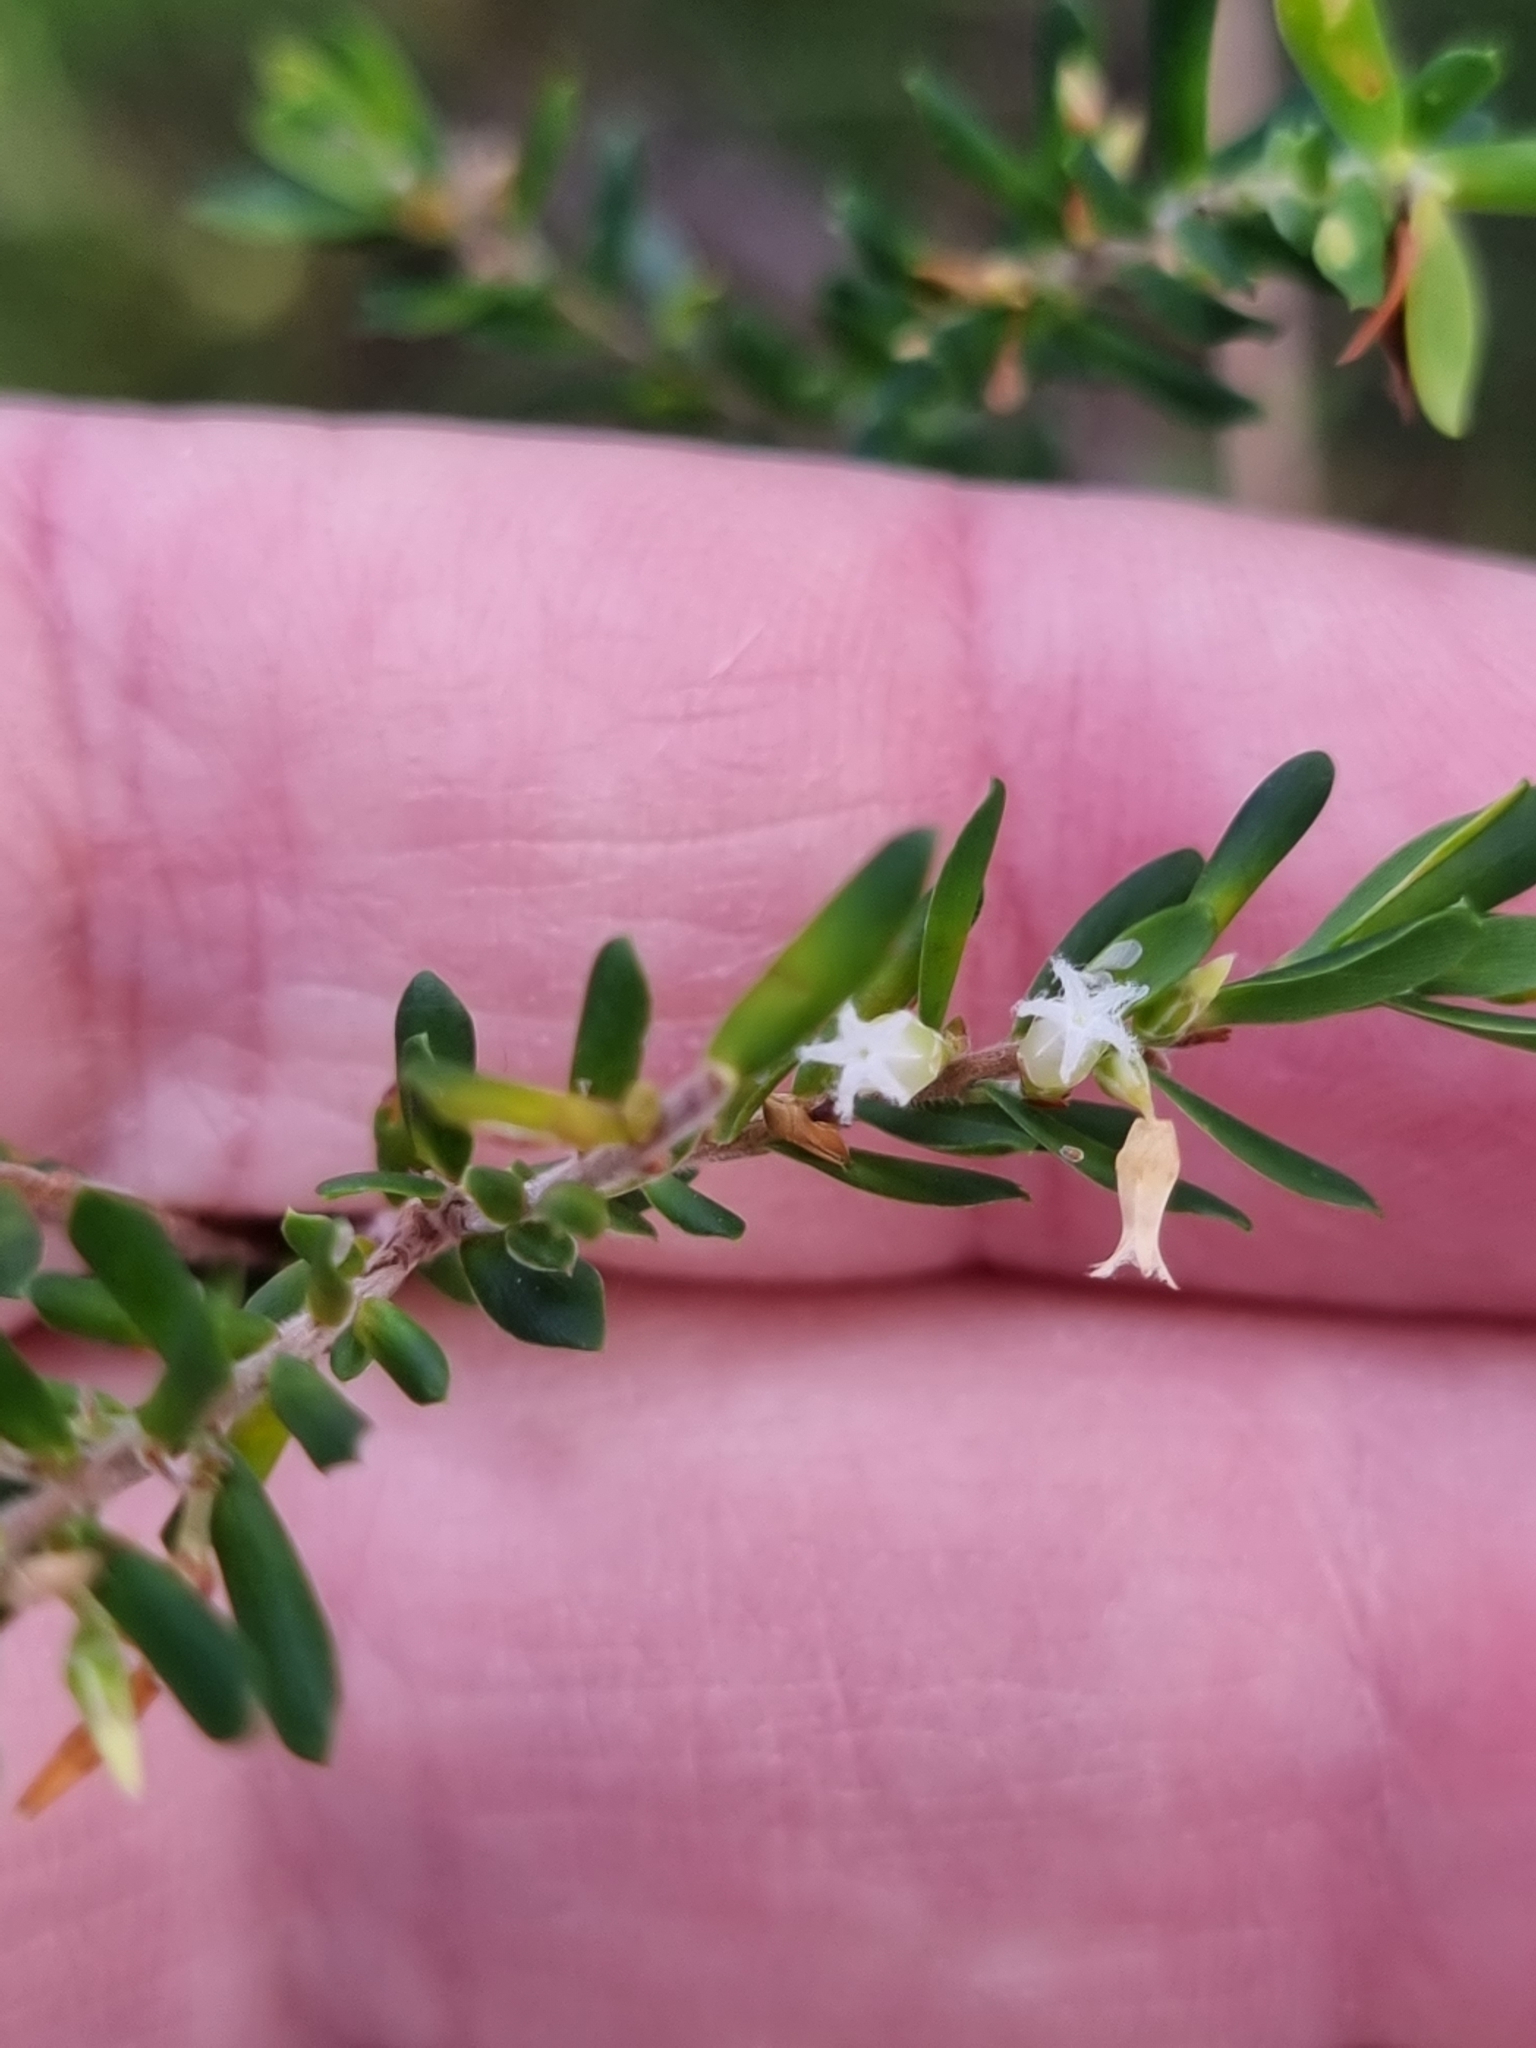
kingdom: Plantae
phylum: Tracheophyta
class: Magnoliopsida
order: Ericales
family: Ericaceae
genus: Styphelia
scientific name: Styphelia margarodes
